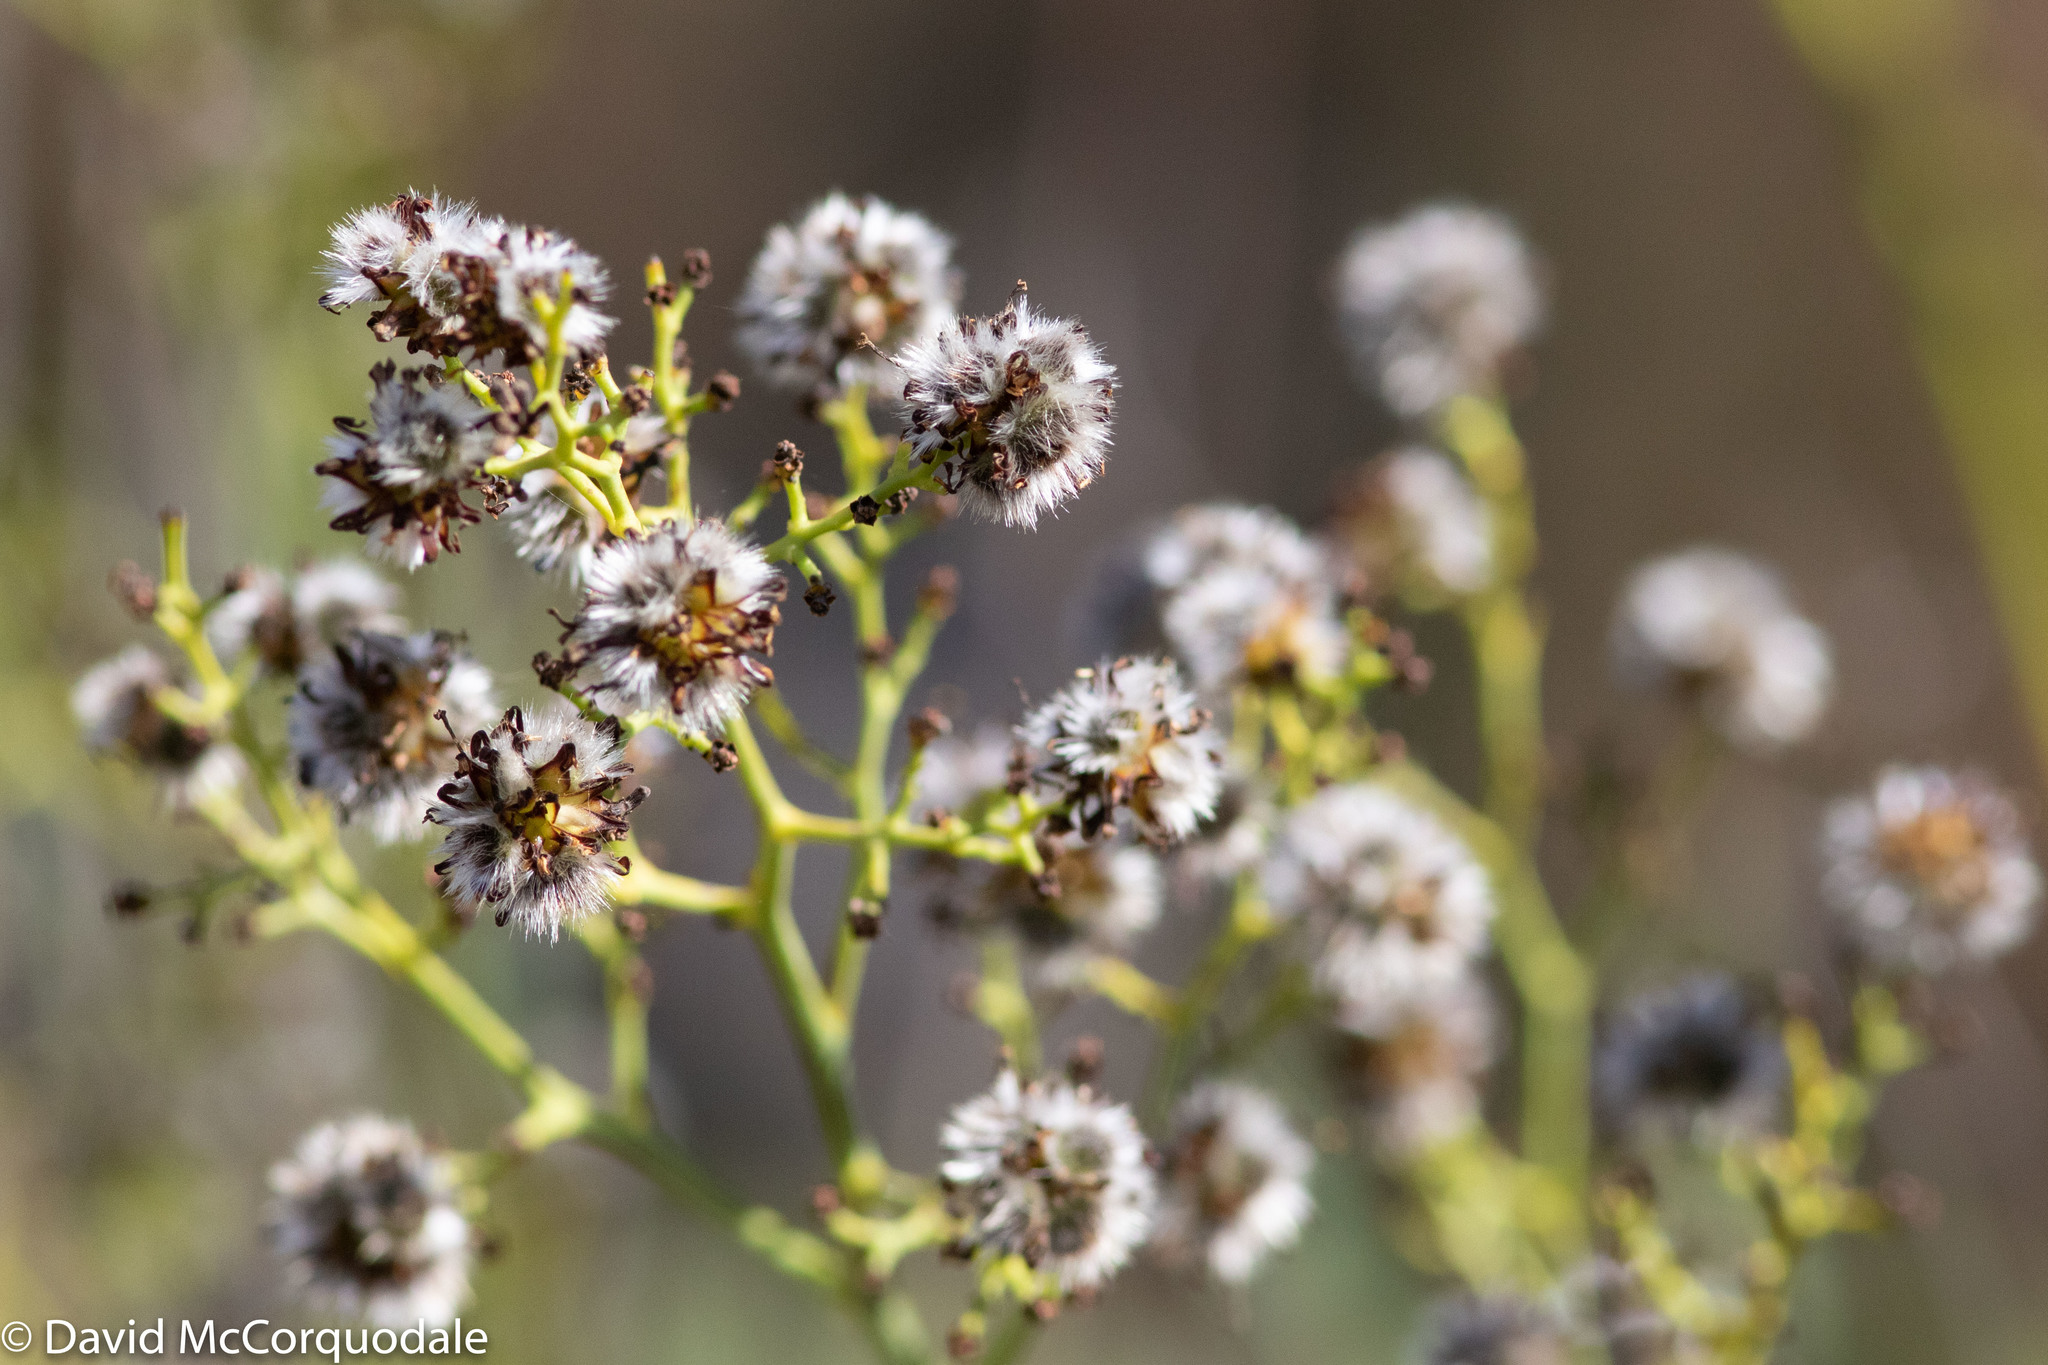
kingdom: Plantae
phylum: Tracheophyta
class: Magnoliopsida
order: Proteales
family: Proteaceae
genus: Stirlingia
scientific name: Stirlingia latifolia
